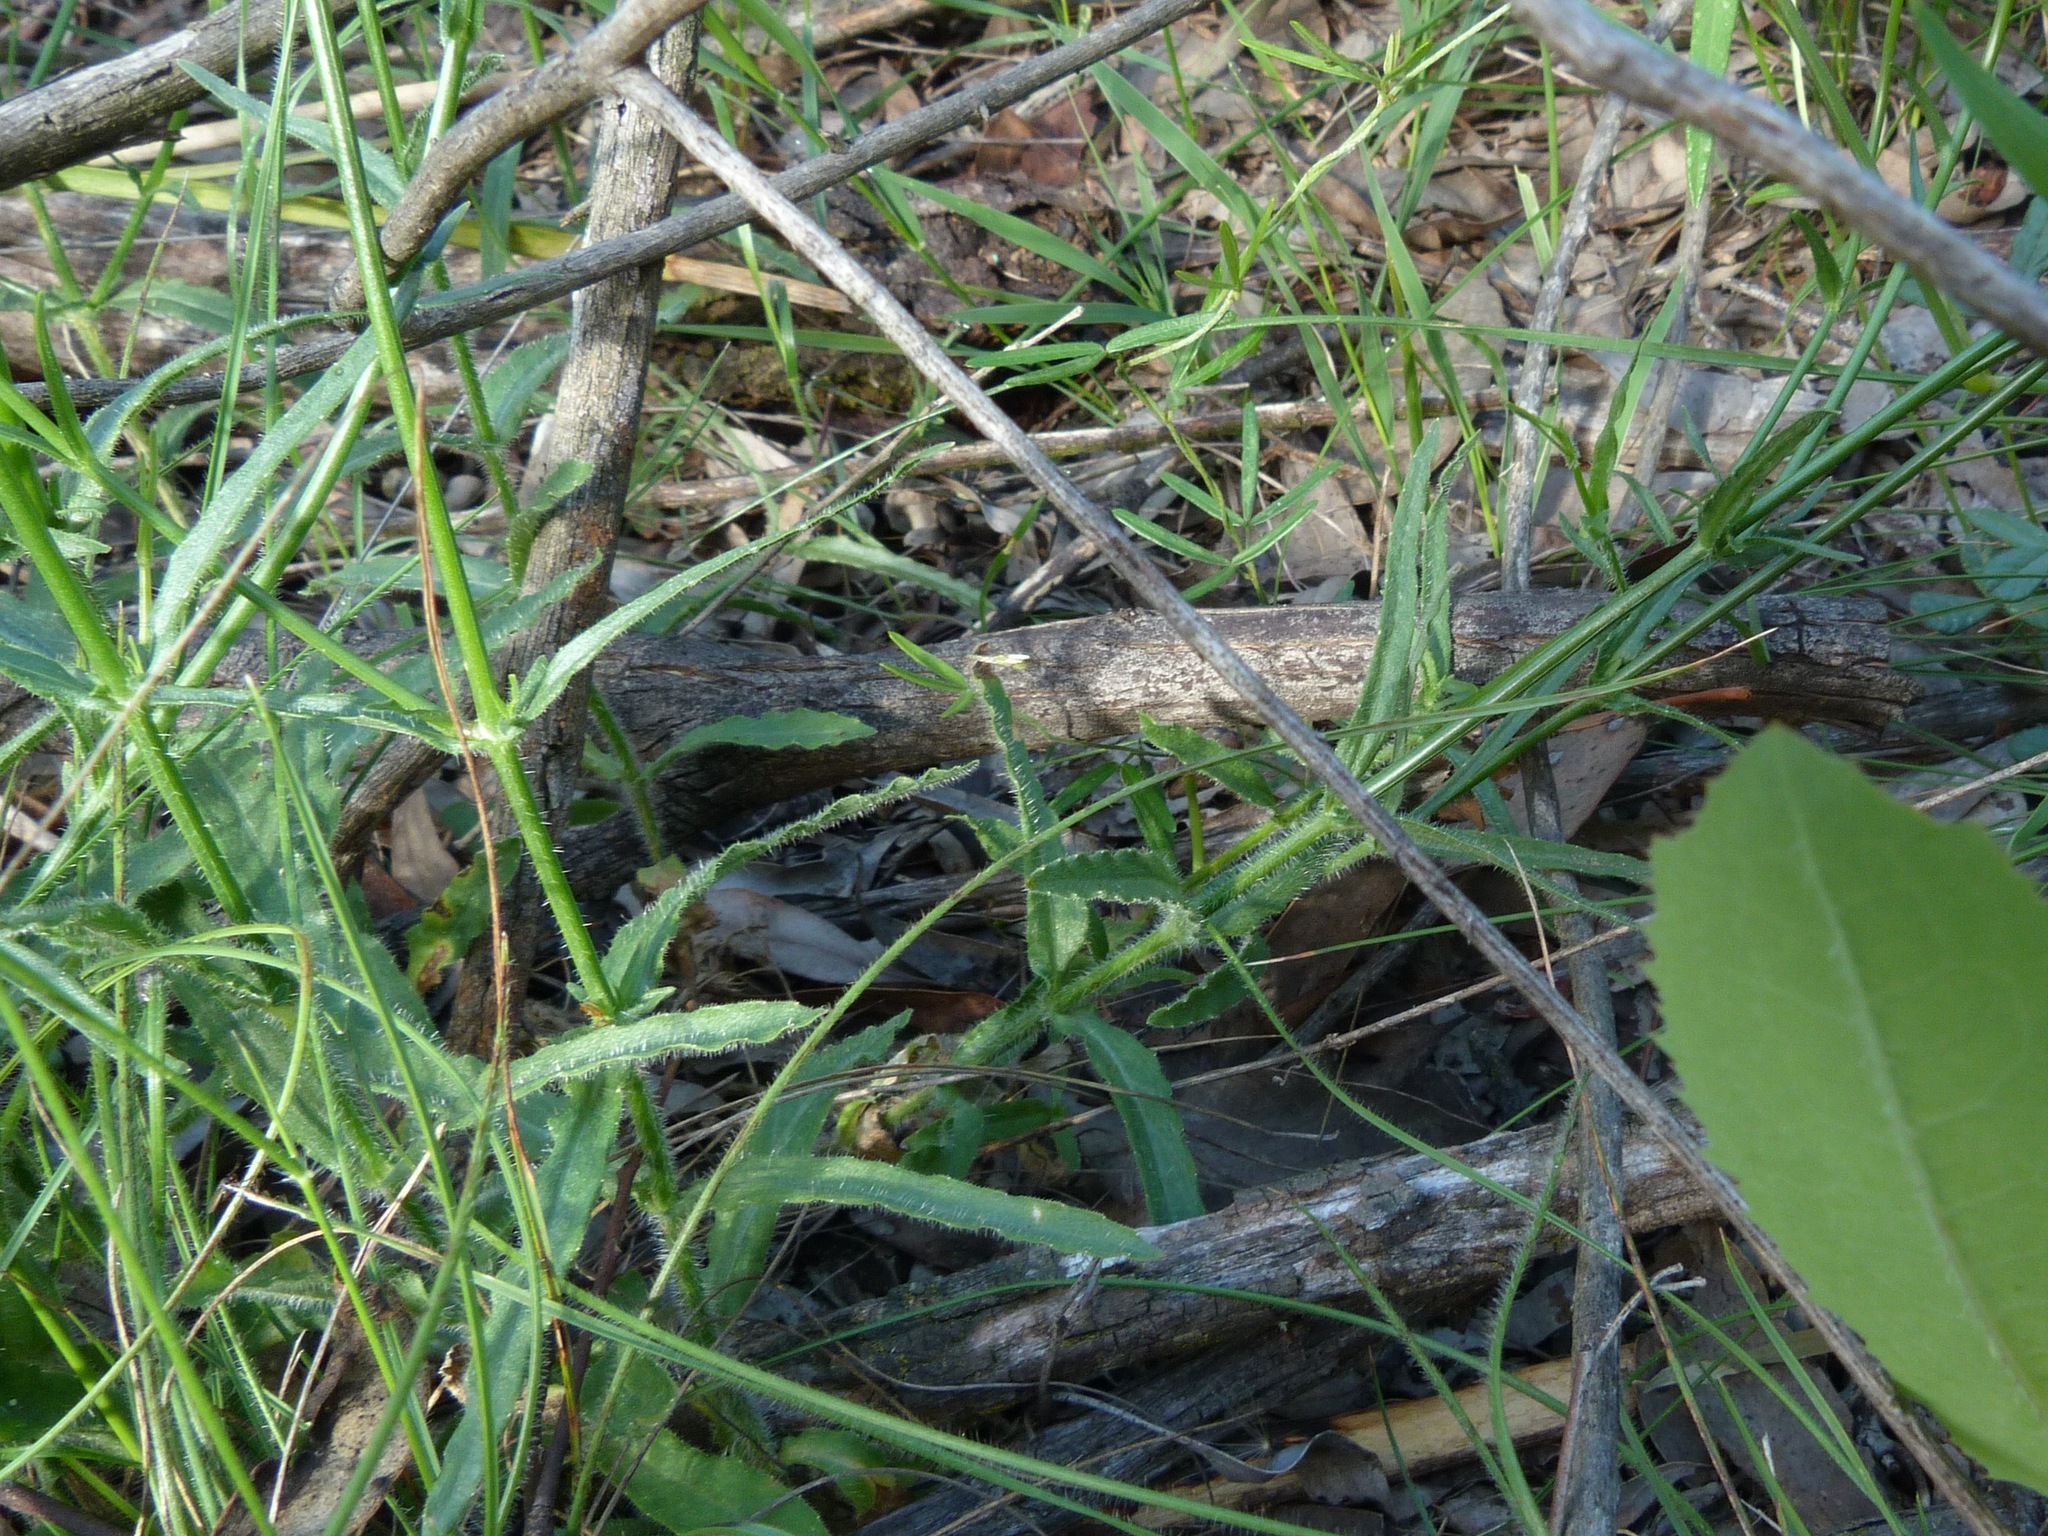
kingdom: Plantae
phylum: Tracheophyta
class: Magnoliopsida
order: Asterales
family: Campanulaceae
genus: Wahlenbergia
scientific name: Wahlenbergia stricta
